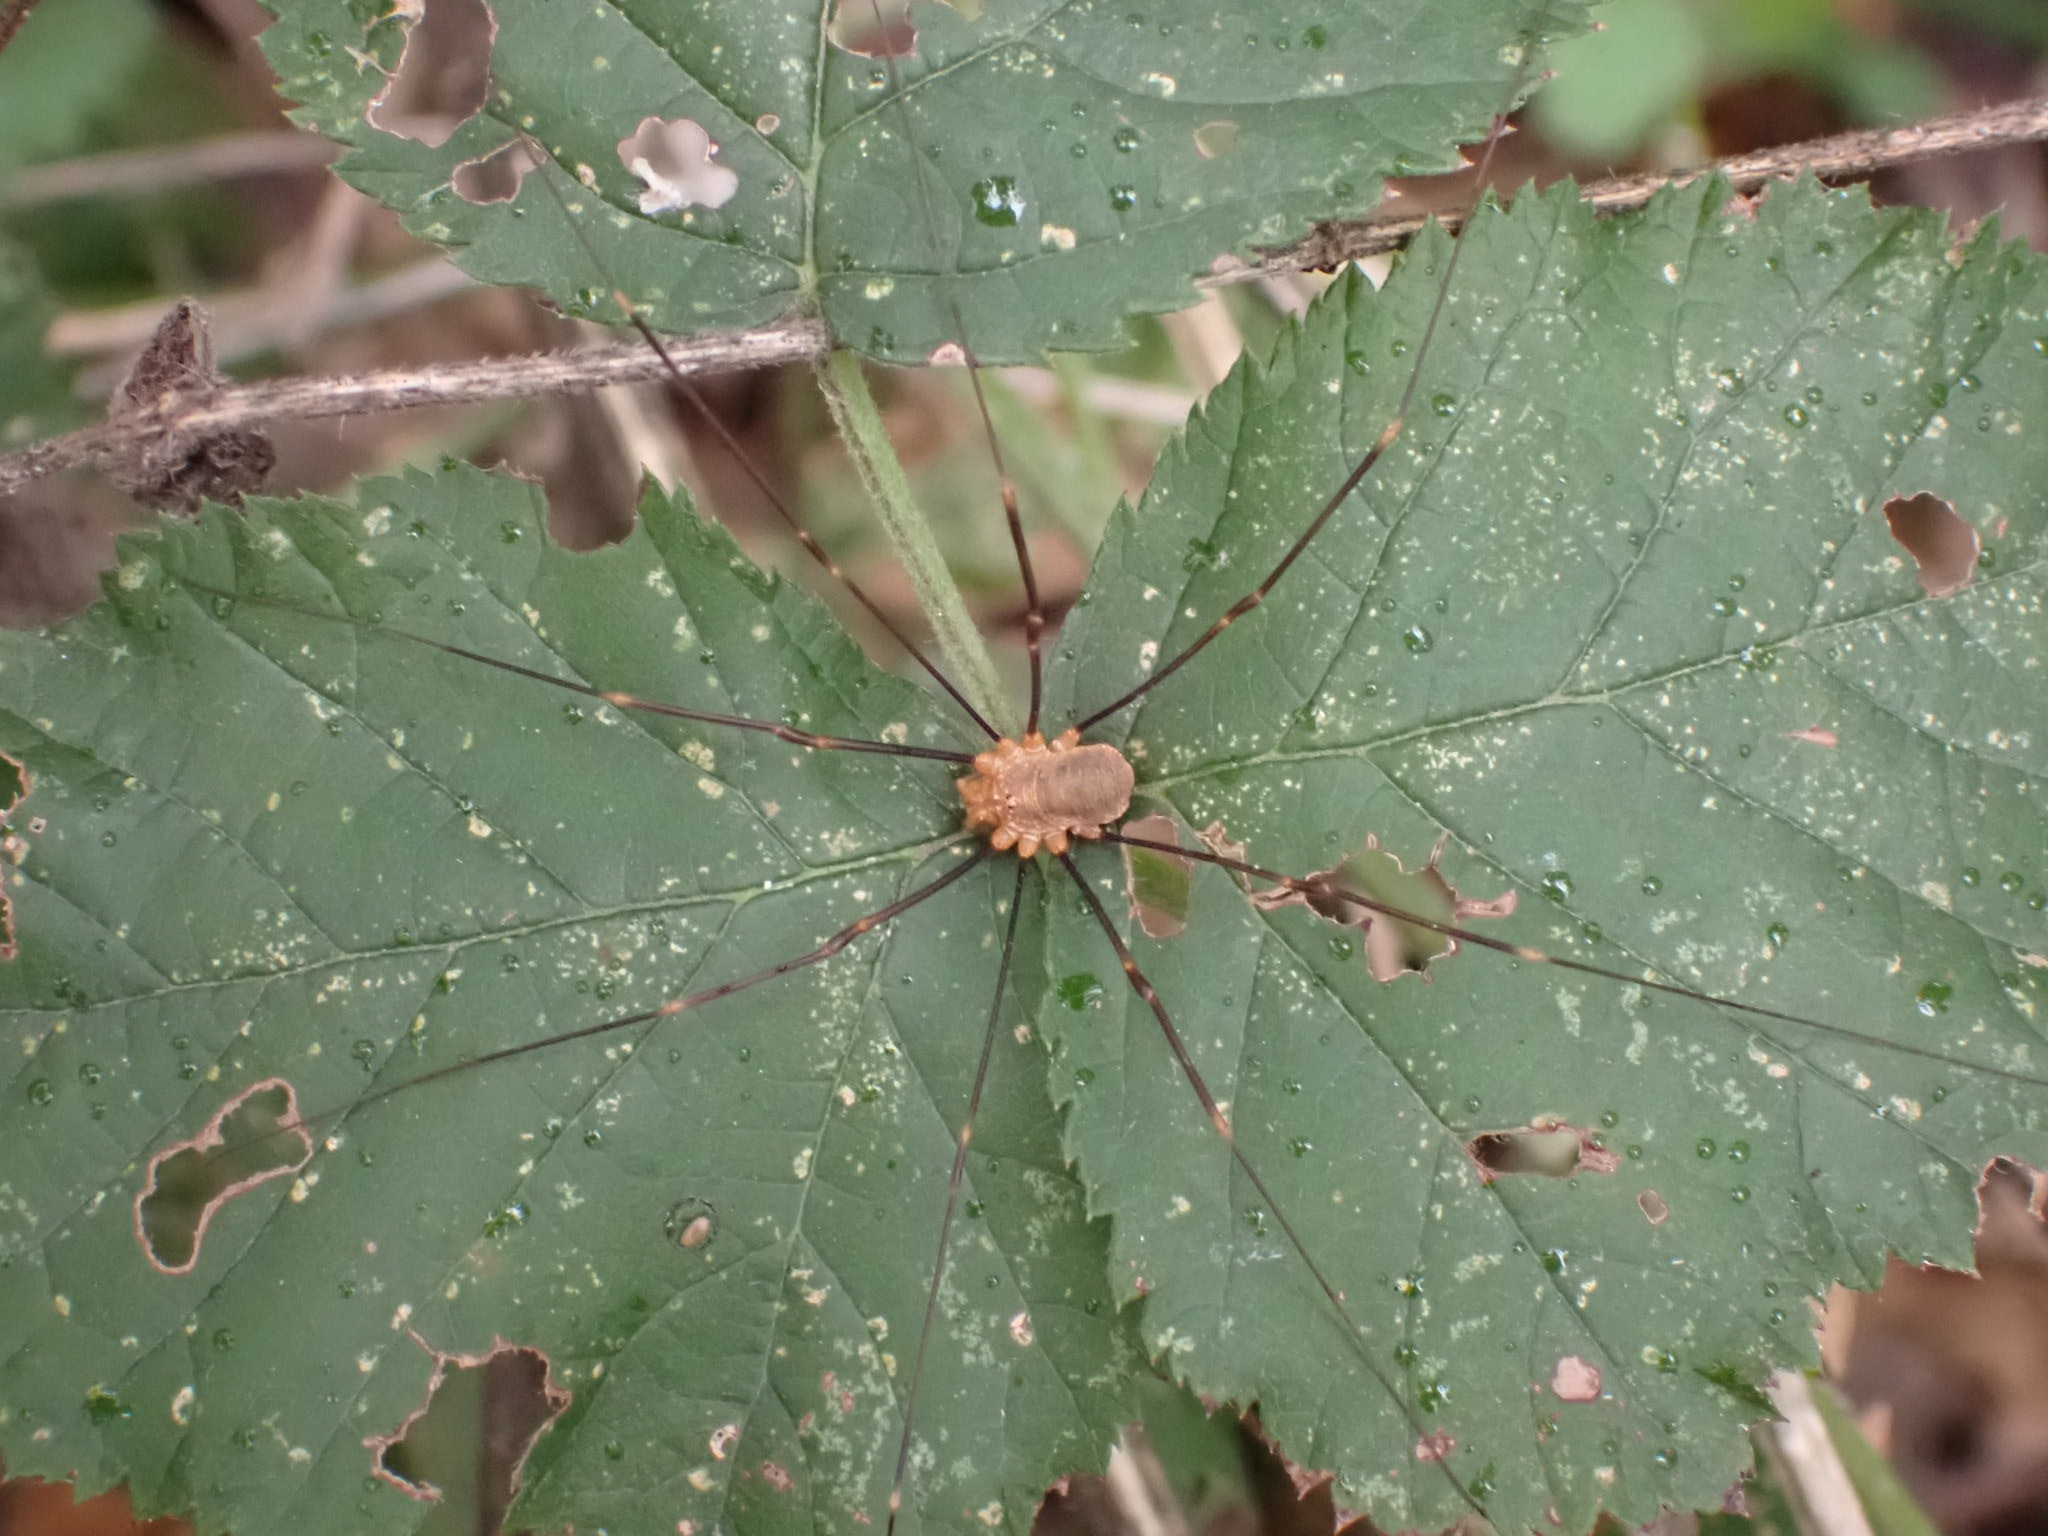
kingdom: Animalia
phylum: Arthropoda
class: Arachnida
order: Opiliones
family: Phalangiidae
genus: Opilio
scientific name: Opilio canestrinii
